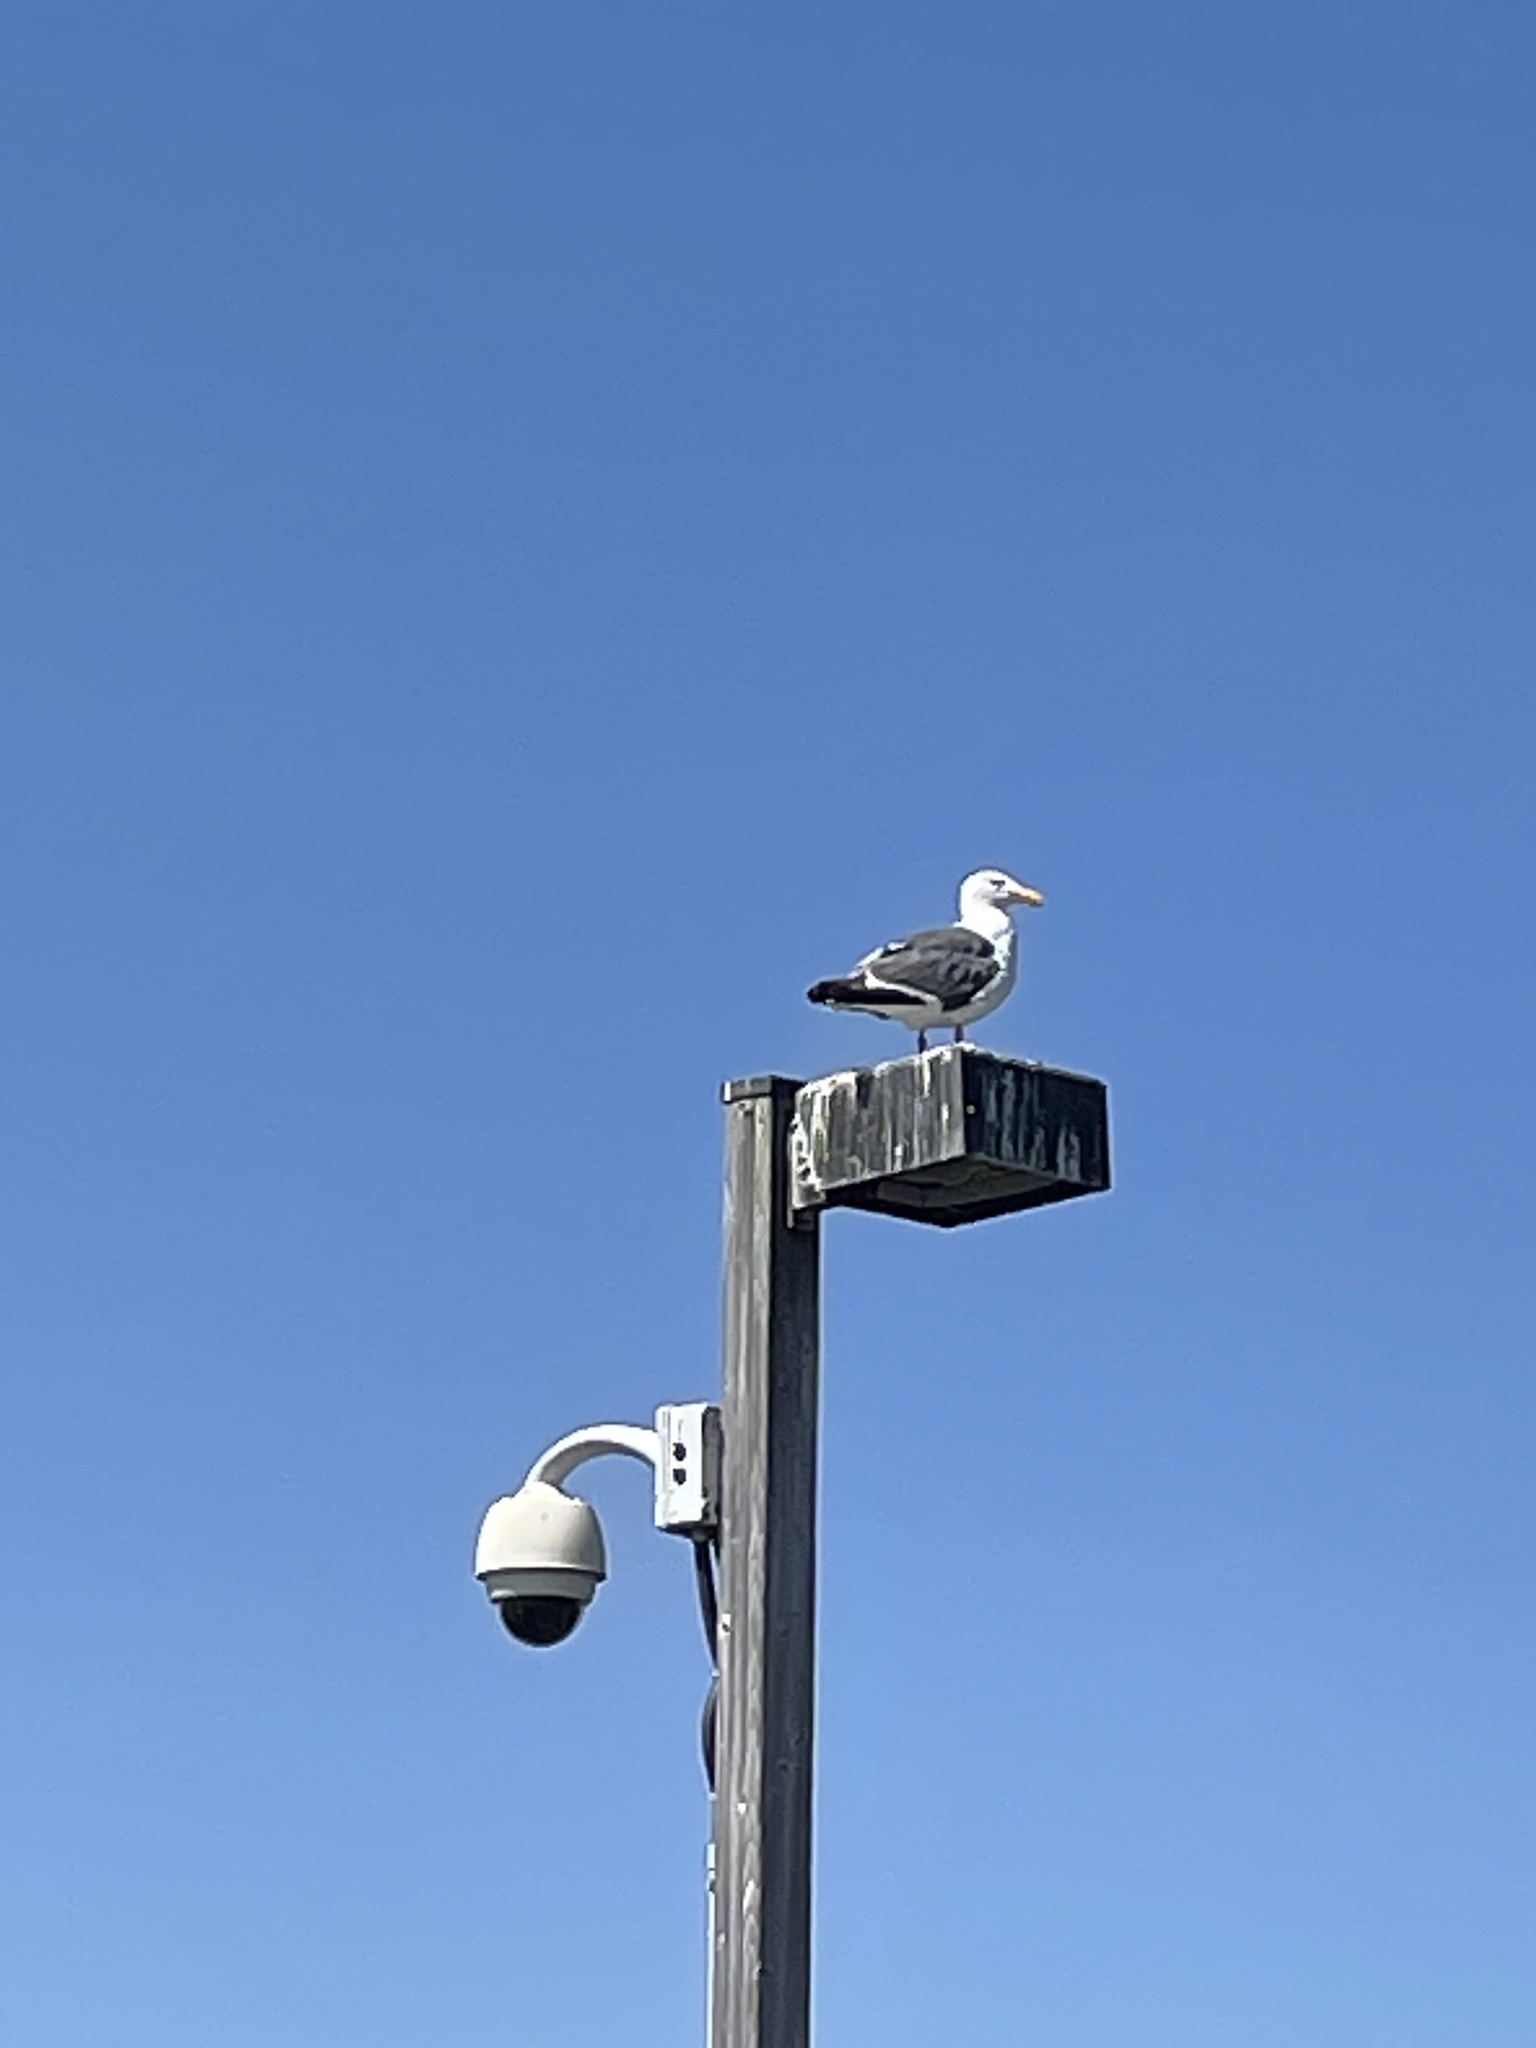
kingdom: Animalia
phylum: Chordata
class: Aves
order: Charadriiformes
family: Laridae
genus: Larus
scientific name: Larus occidentalis
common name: Western gull
